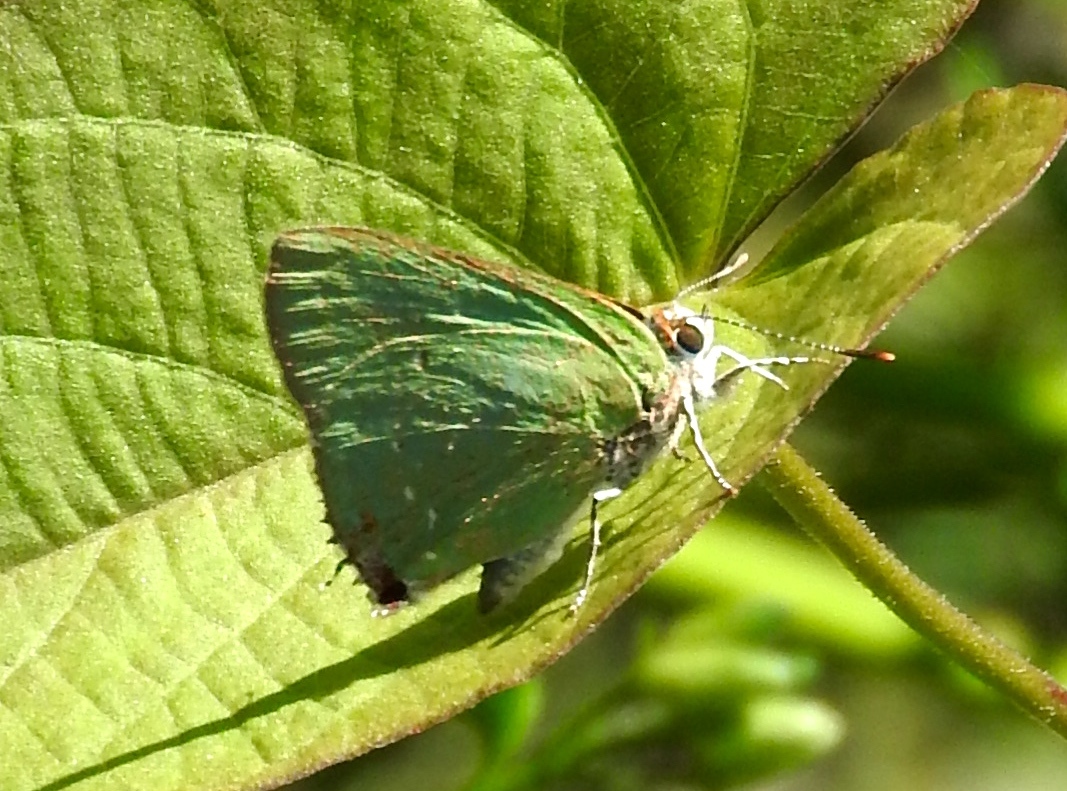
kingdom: Animalia
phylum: Arthropoda
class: Insecta
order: Lepidoptera
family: Lycaenidae
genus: Cyanophrys
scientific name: Cyanophrys
